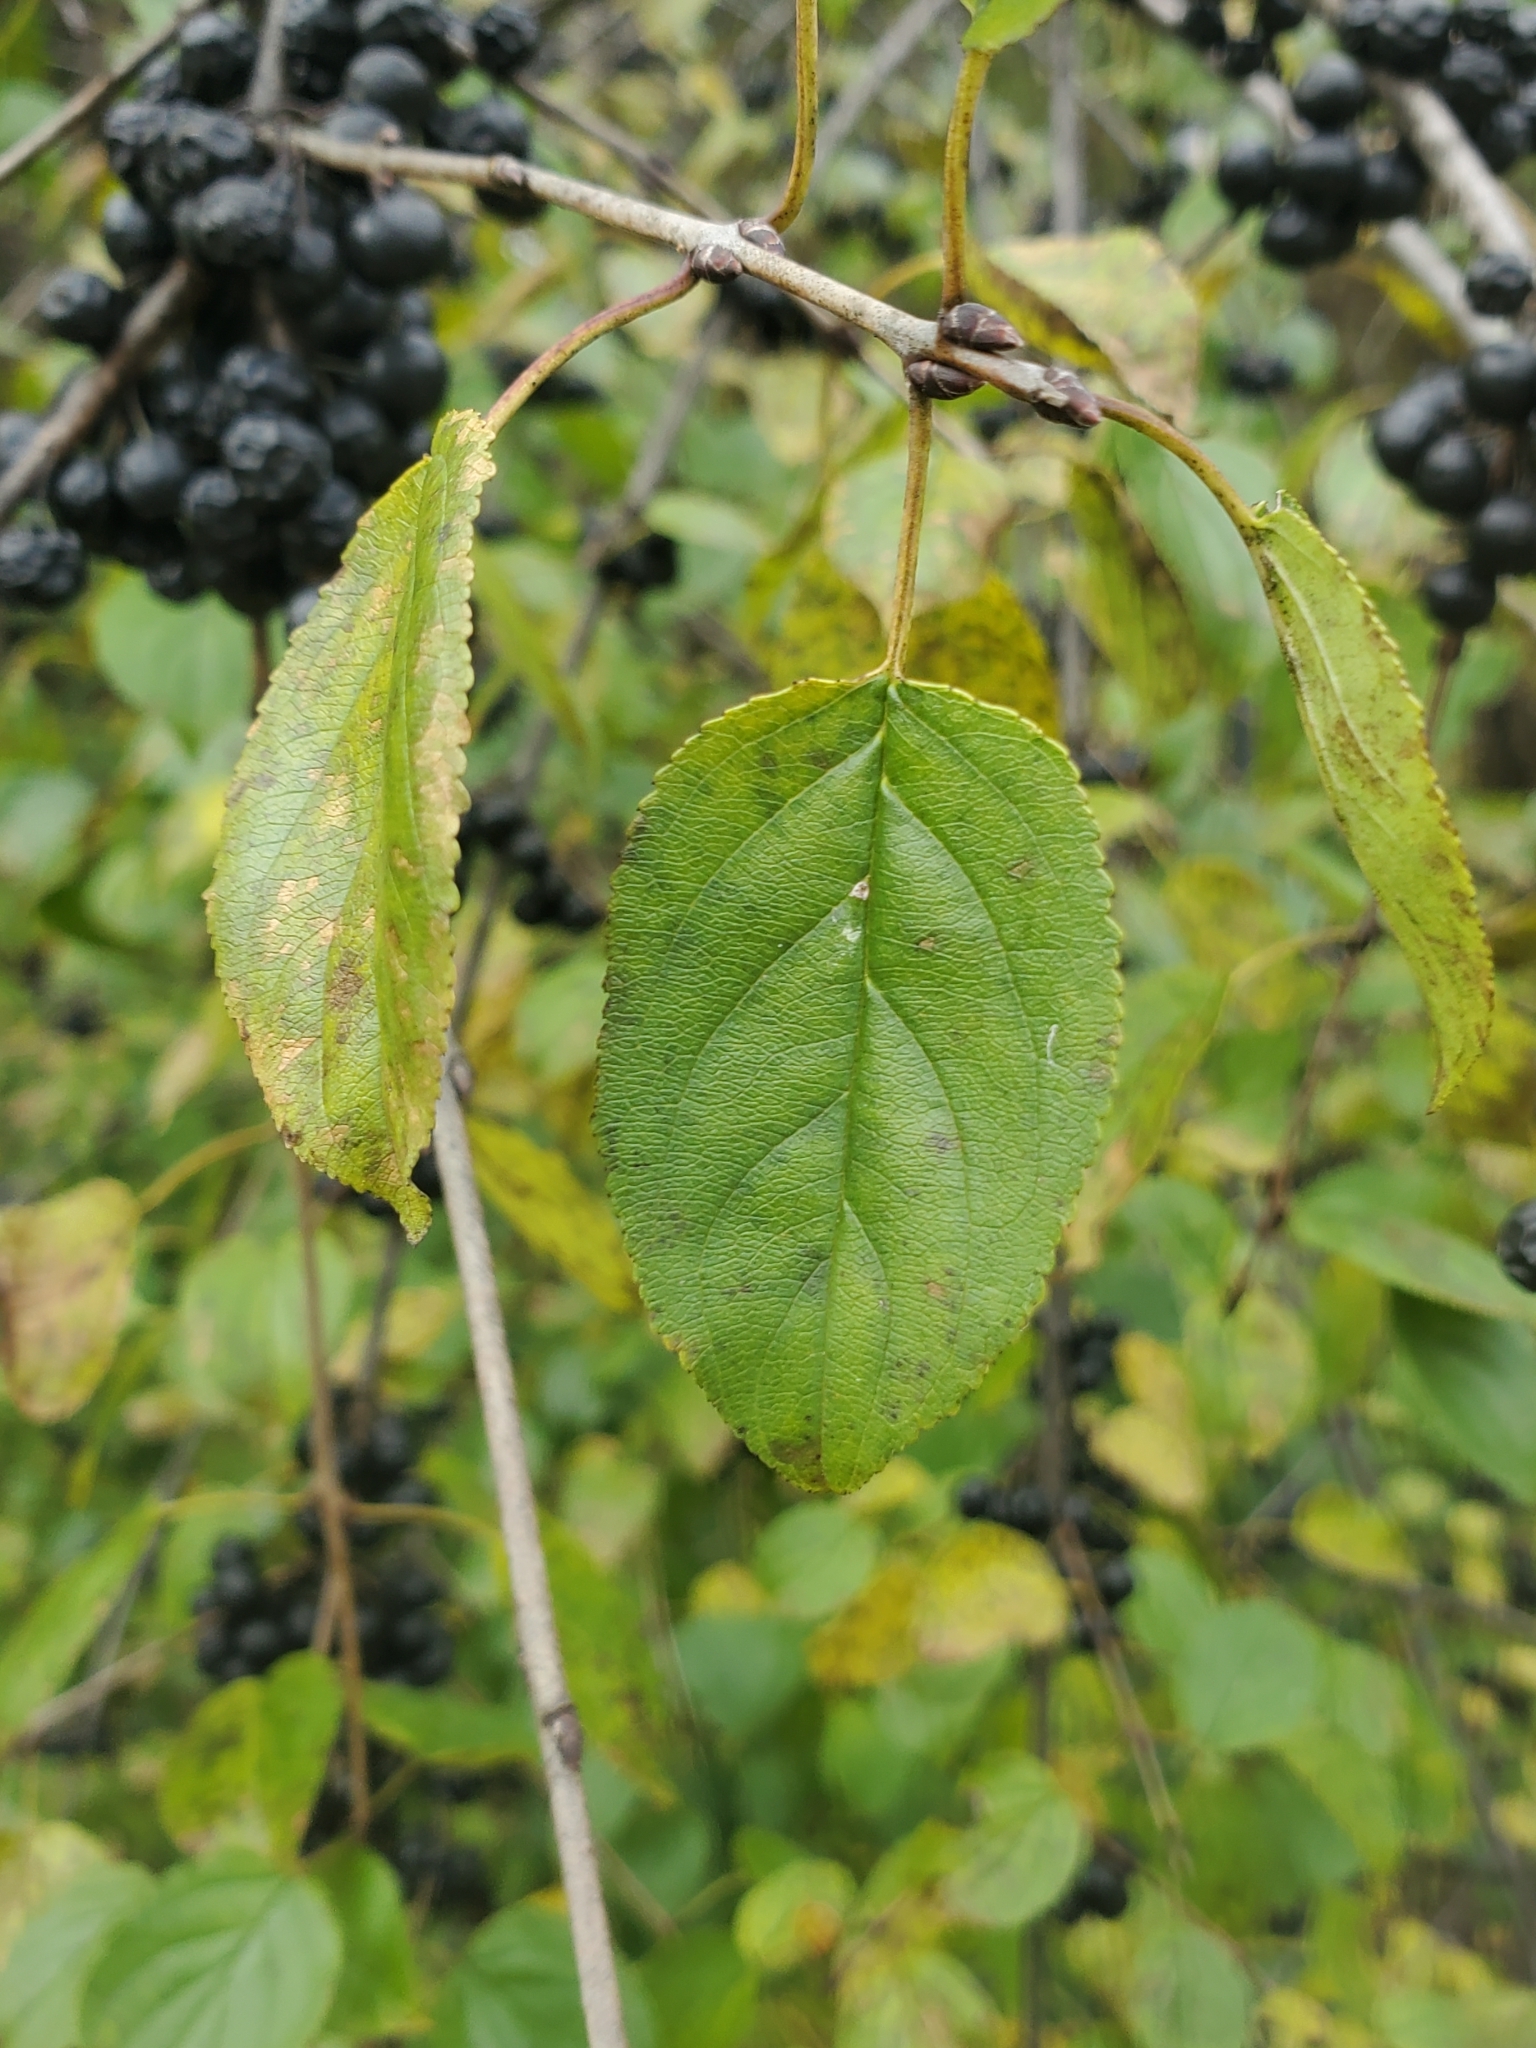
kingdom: Plantae
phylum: Tracheophyta
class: Magnoliopsida
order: Rosales
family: Rhamnaceae
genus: Rhamnus
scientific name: Rhamnus cathartica
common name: Common buckthorn
